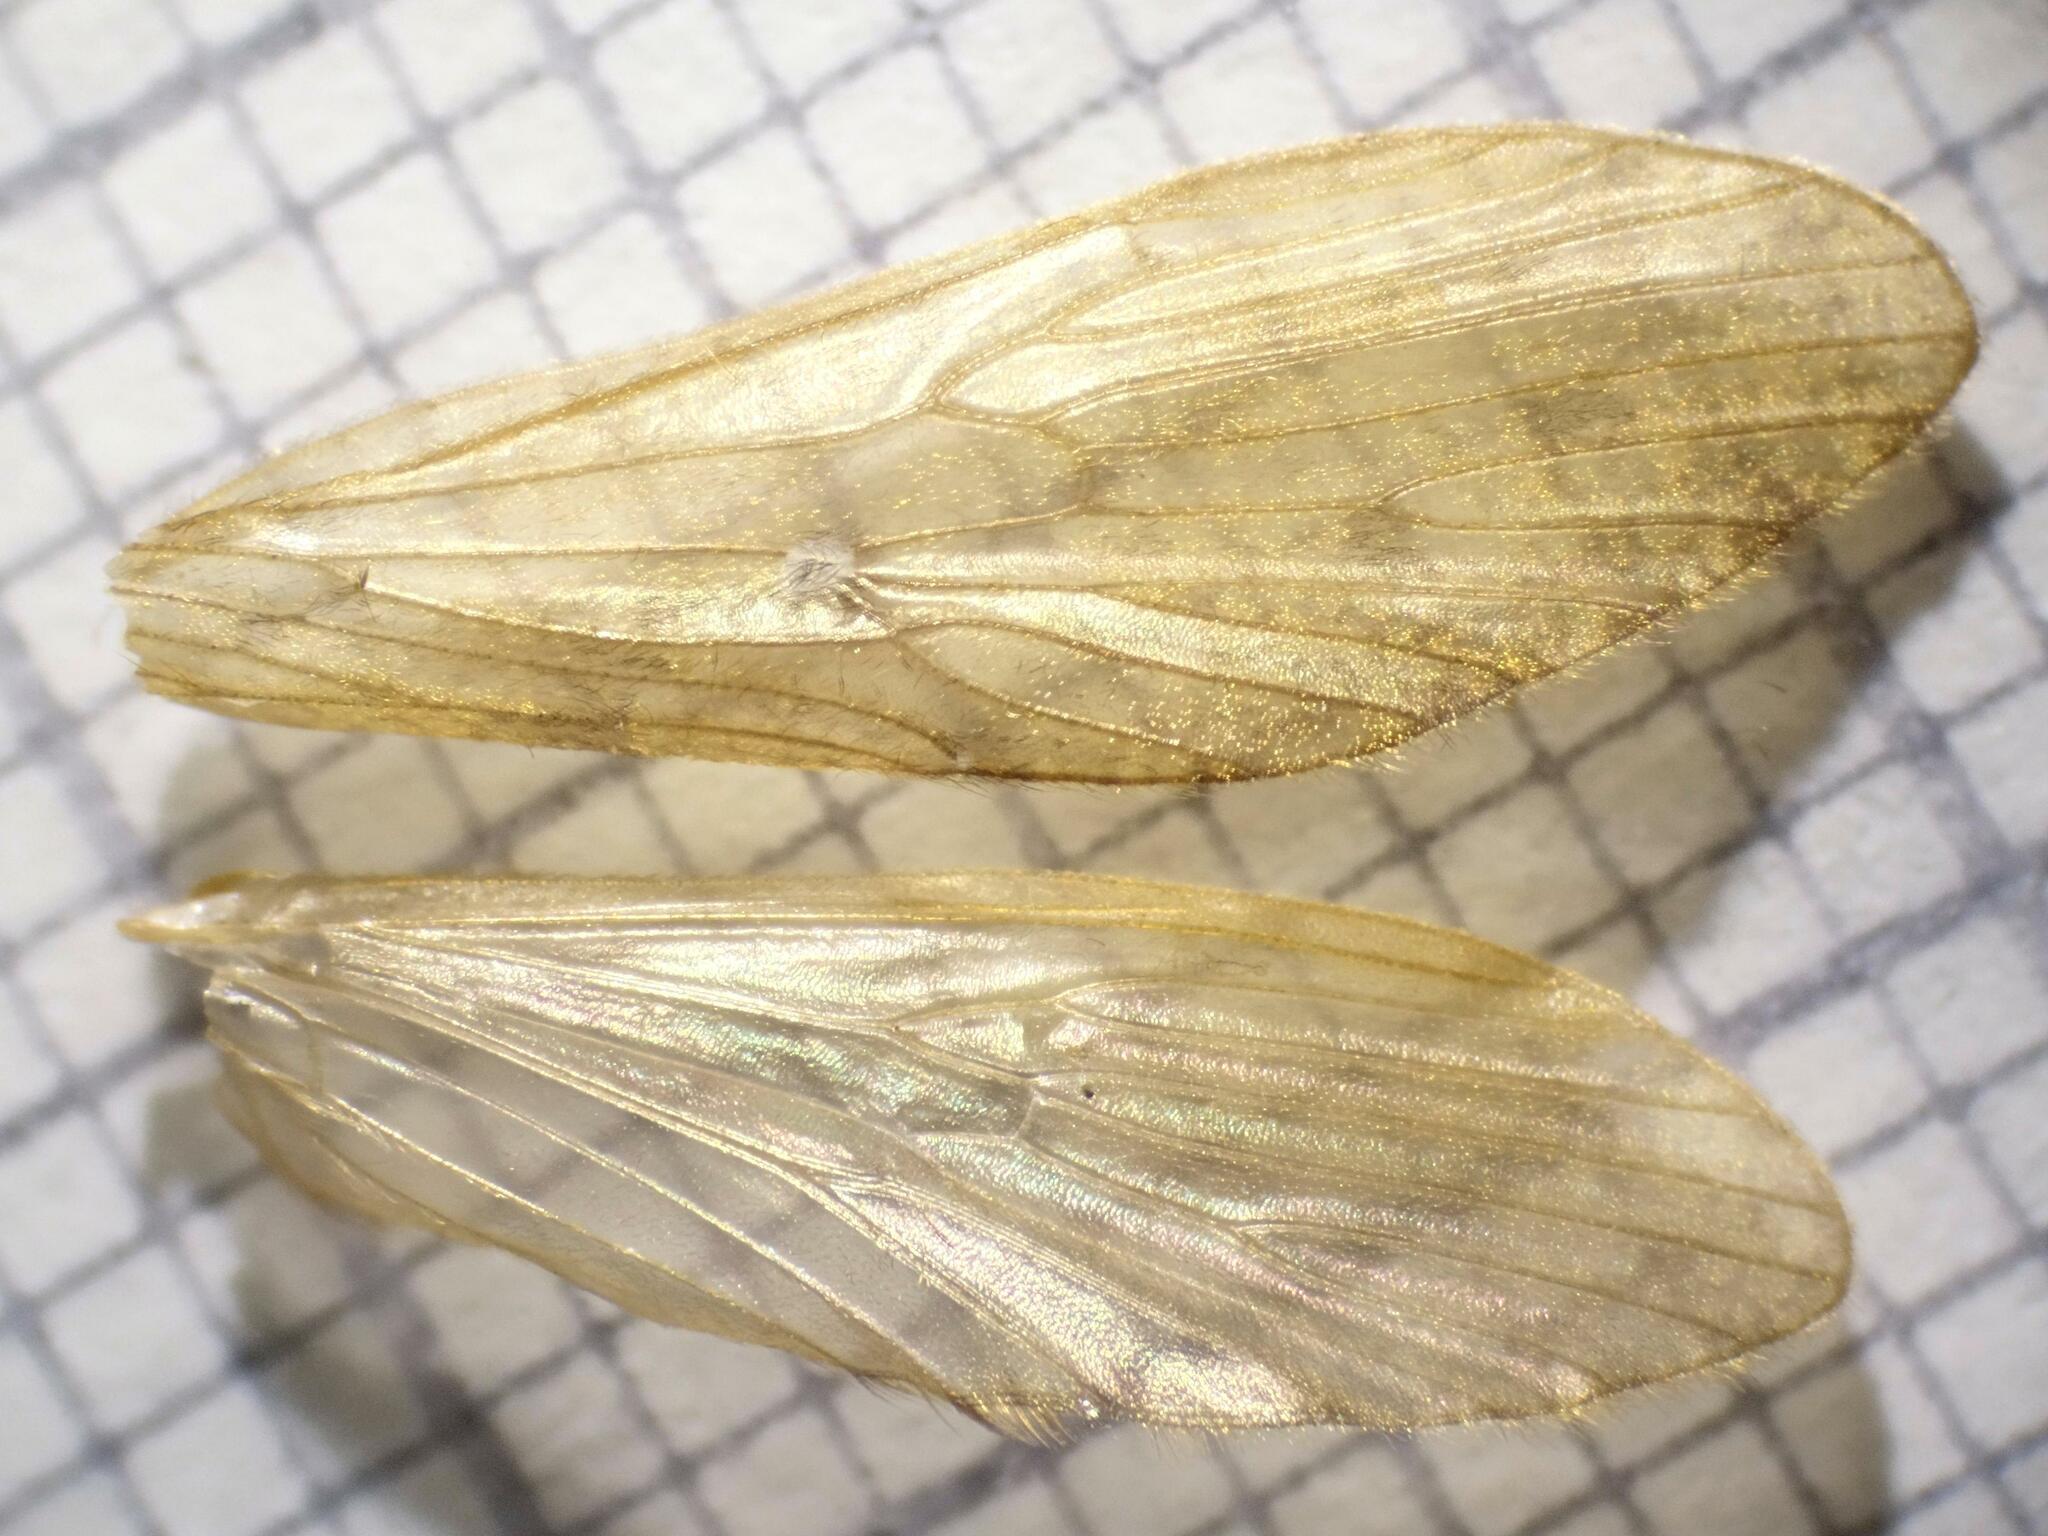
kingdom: Animalia
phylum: Arthropoda
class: Insecta
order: Trichoptera
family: Rhyacophilidae
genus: Rhyacophila
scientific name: Rhyacophila obliterata
